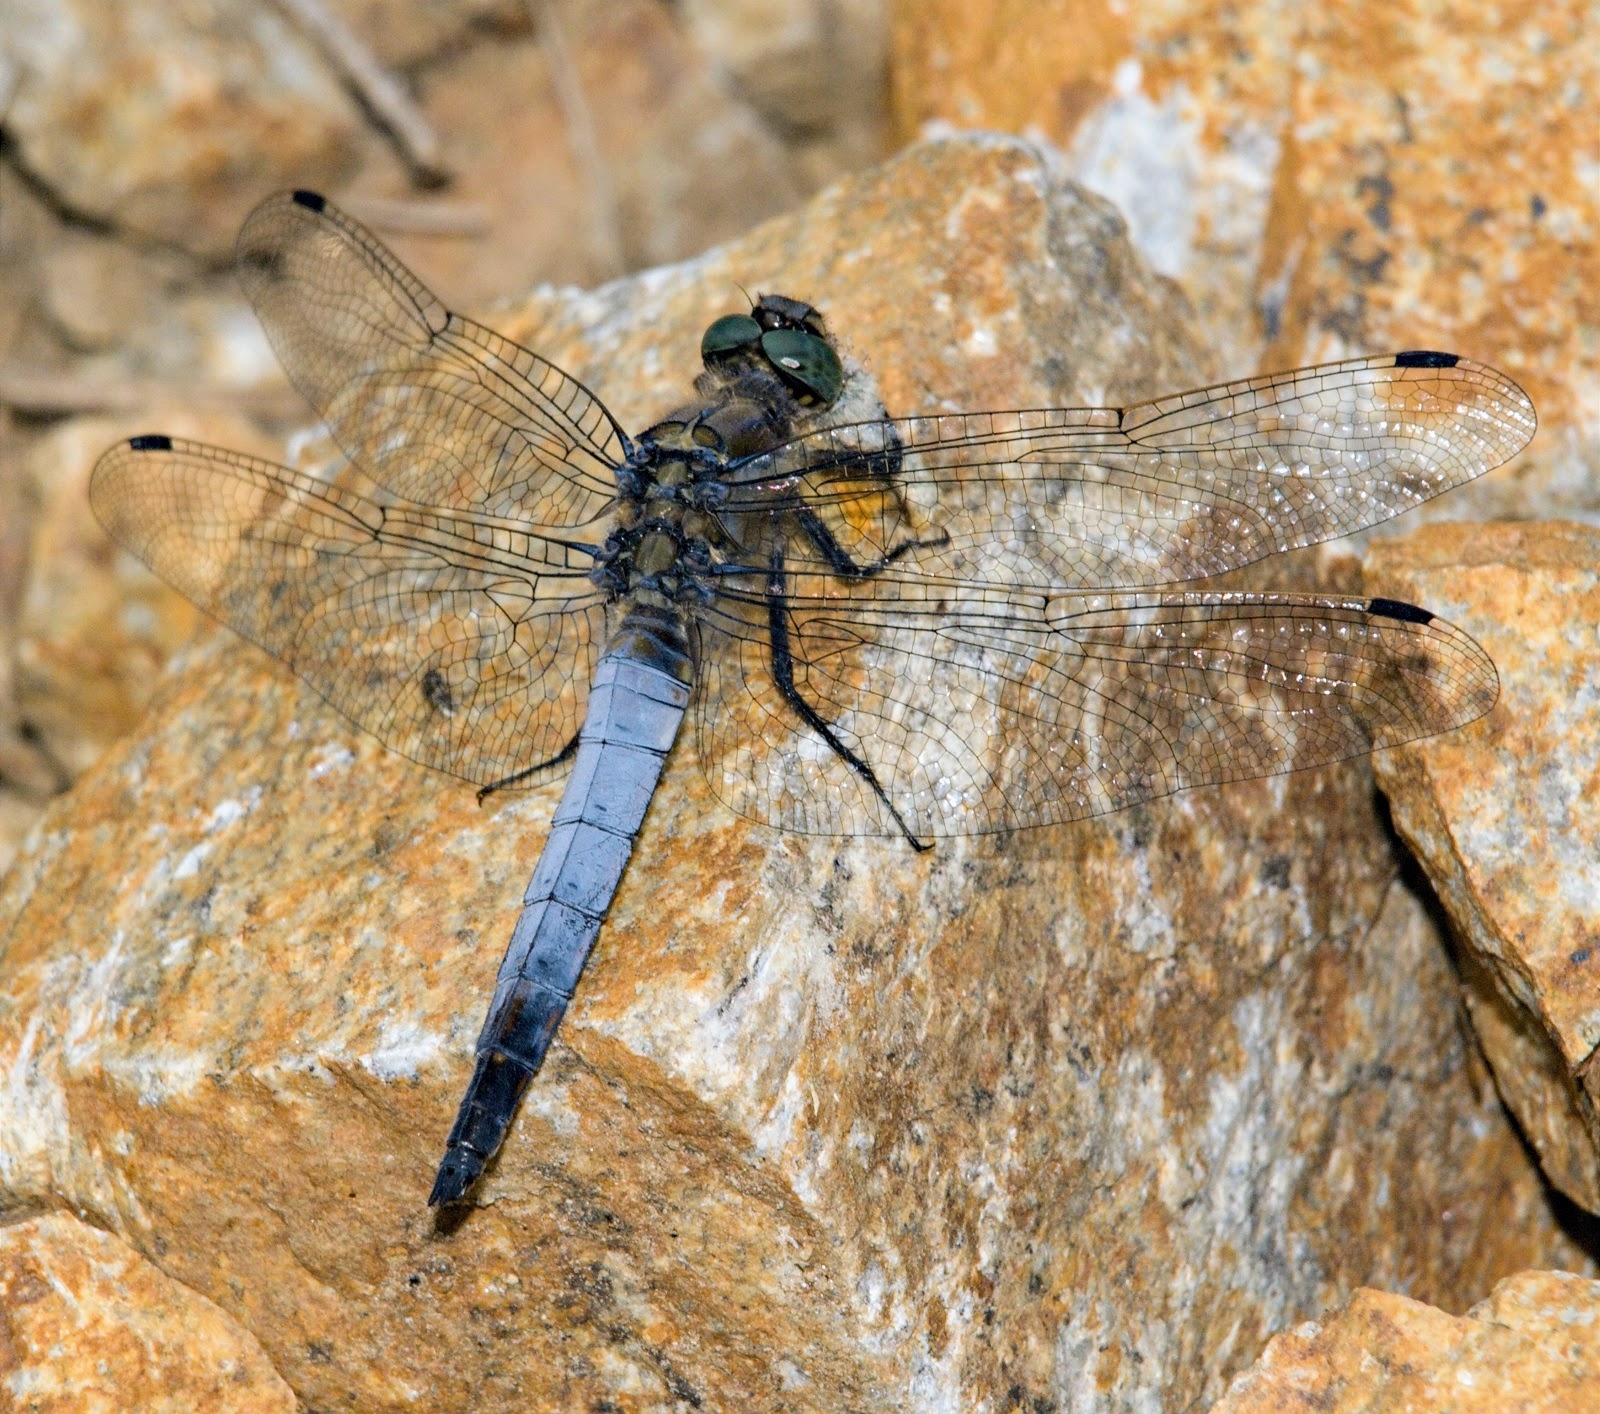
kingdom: Animalia
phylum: Arthropoda
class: Insecta
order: Odonata
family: Libellulidae
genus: Orthetrum
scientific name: Orthetrum cancellatum
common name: Black-tailed skimmer
